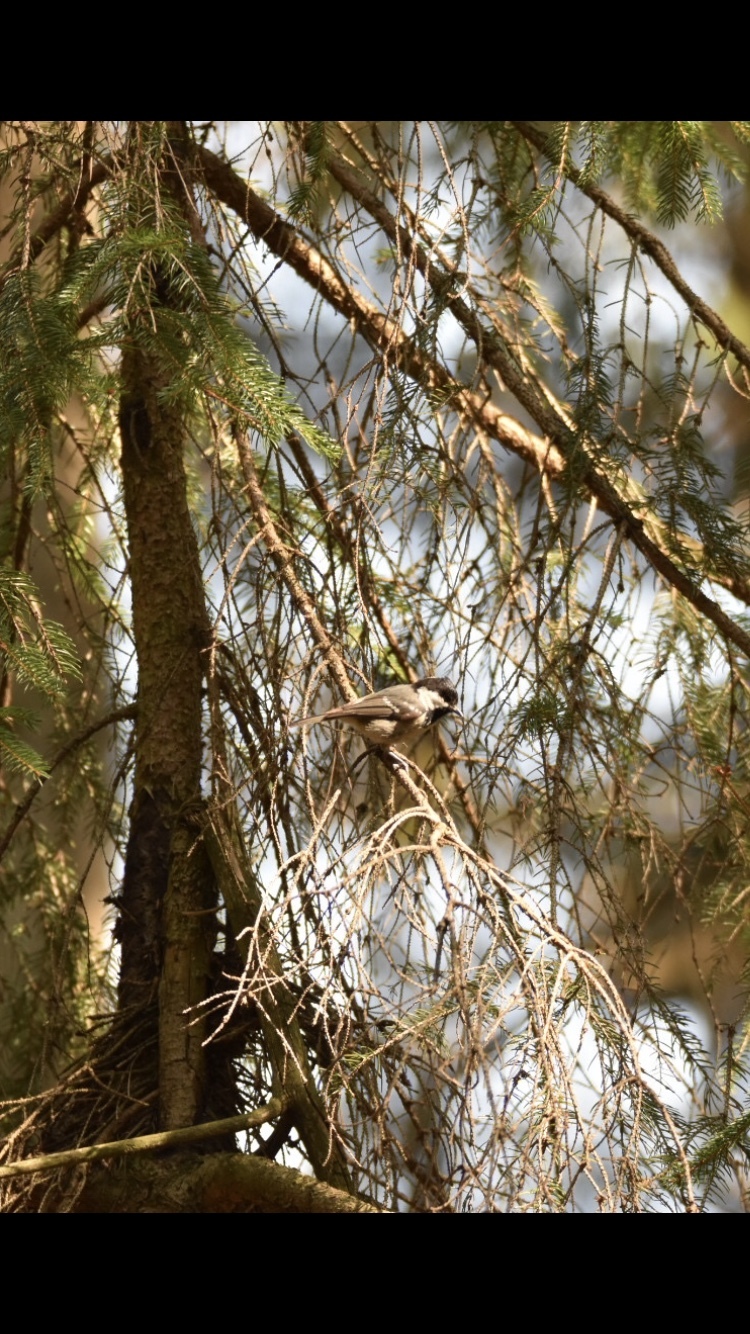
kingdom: Animalia
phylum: Chordata
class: Aves
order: Passeriformes
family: Paridae
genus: Periparus
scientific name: Periparus ater
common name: Coal tit
